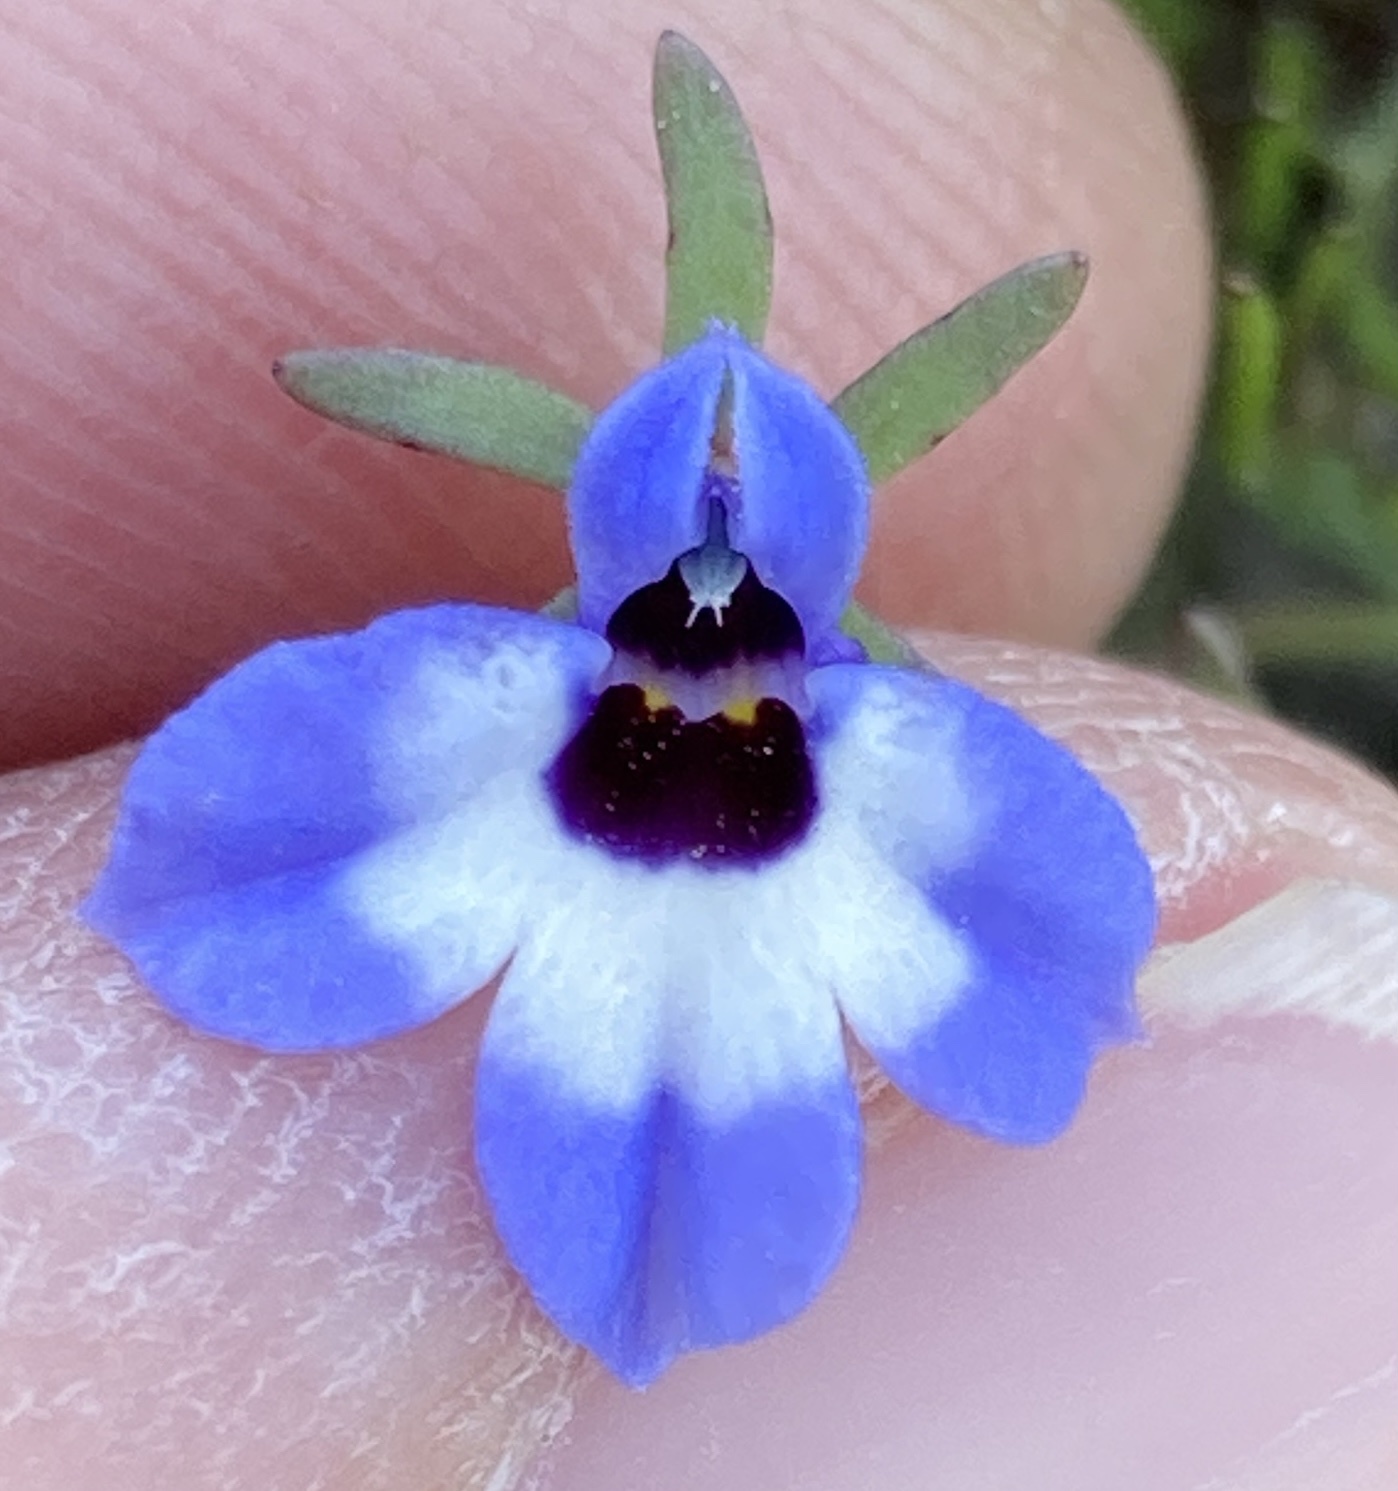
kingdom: Plantae
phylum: Tracheophyta
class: Magnoliopsida
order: Asterales
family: Campanulaceae
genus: Downingia
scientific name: Downingia concolor
